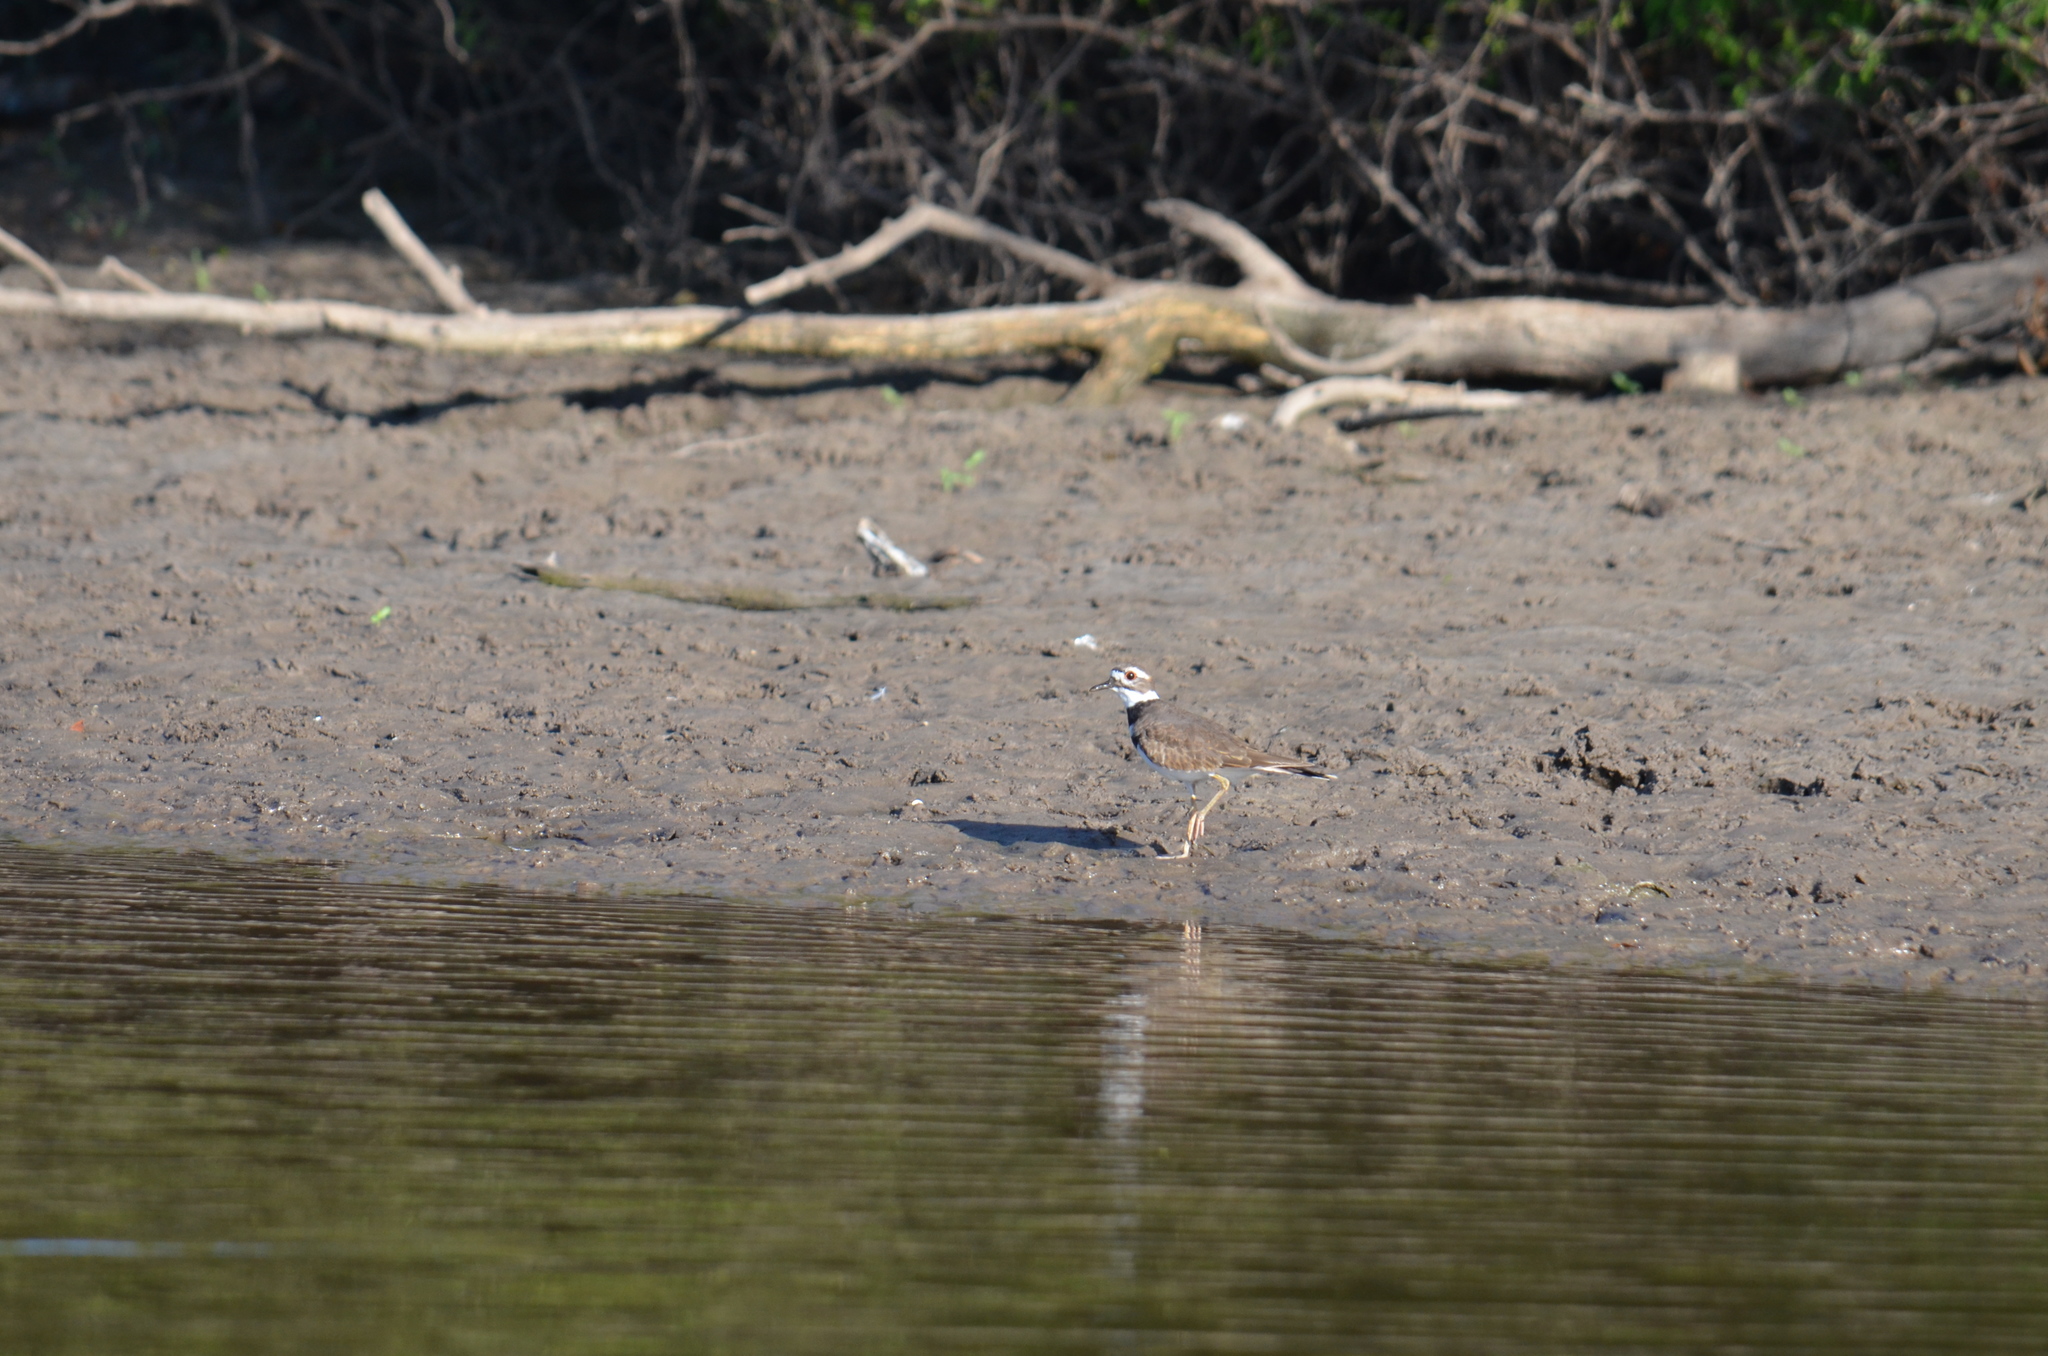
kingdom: Animalia
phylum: Chordata
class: Aves
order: Charadriiformes
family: Charadriidae
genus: Charadrius
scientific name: Charadrius vociferus
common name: Killdeer
